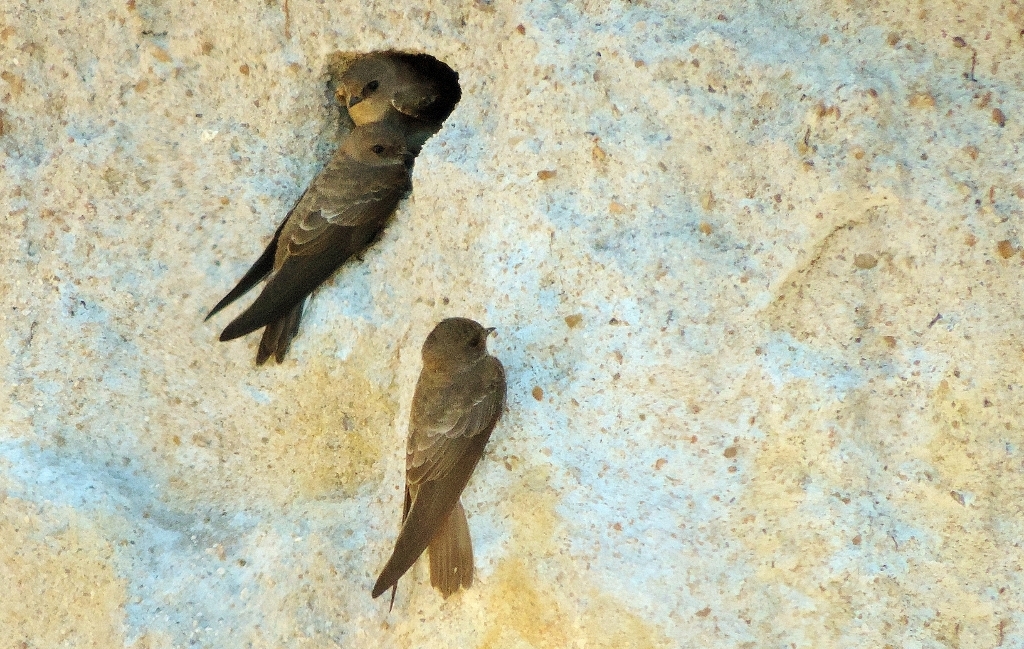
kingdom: Animalia
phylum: Chordata
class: Aves
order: Passeriformes
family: Hirundinidae
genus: Riparia
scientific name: Riparia paludicola
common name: Brown-throated martin
